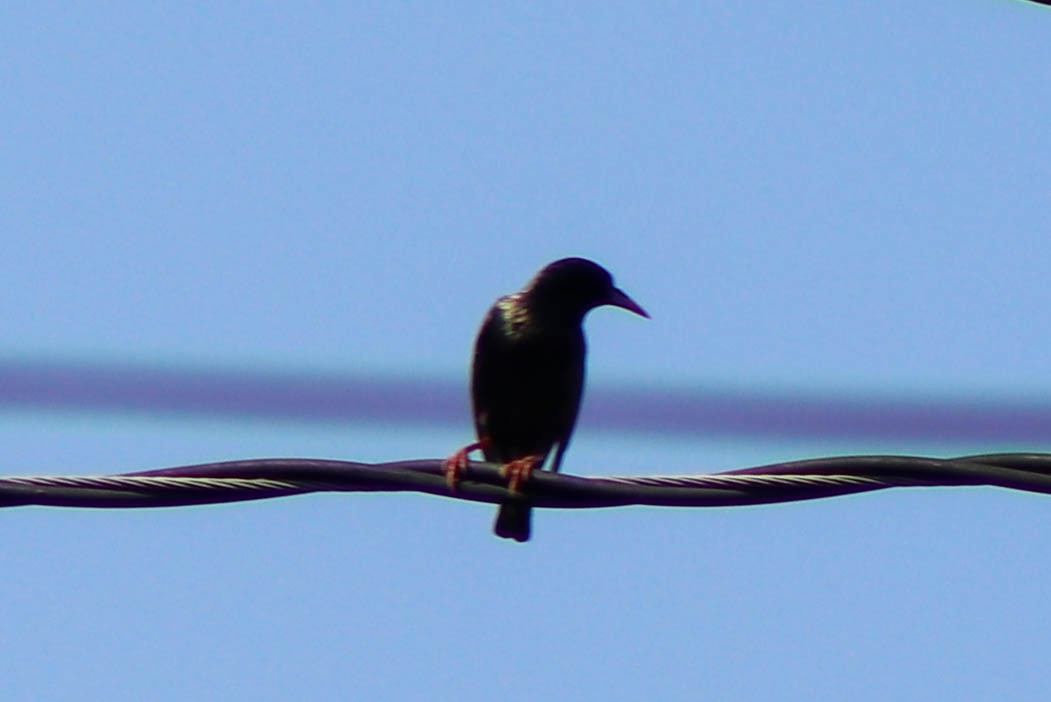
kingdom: Animalia
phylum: Chordata
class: Aves
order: Passeriformes
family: Sturnidae
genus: Sturnus
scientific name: Sturnus vulgaris
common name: Common starling
